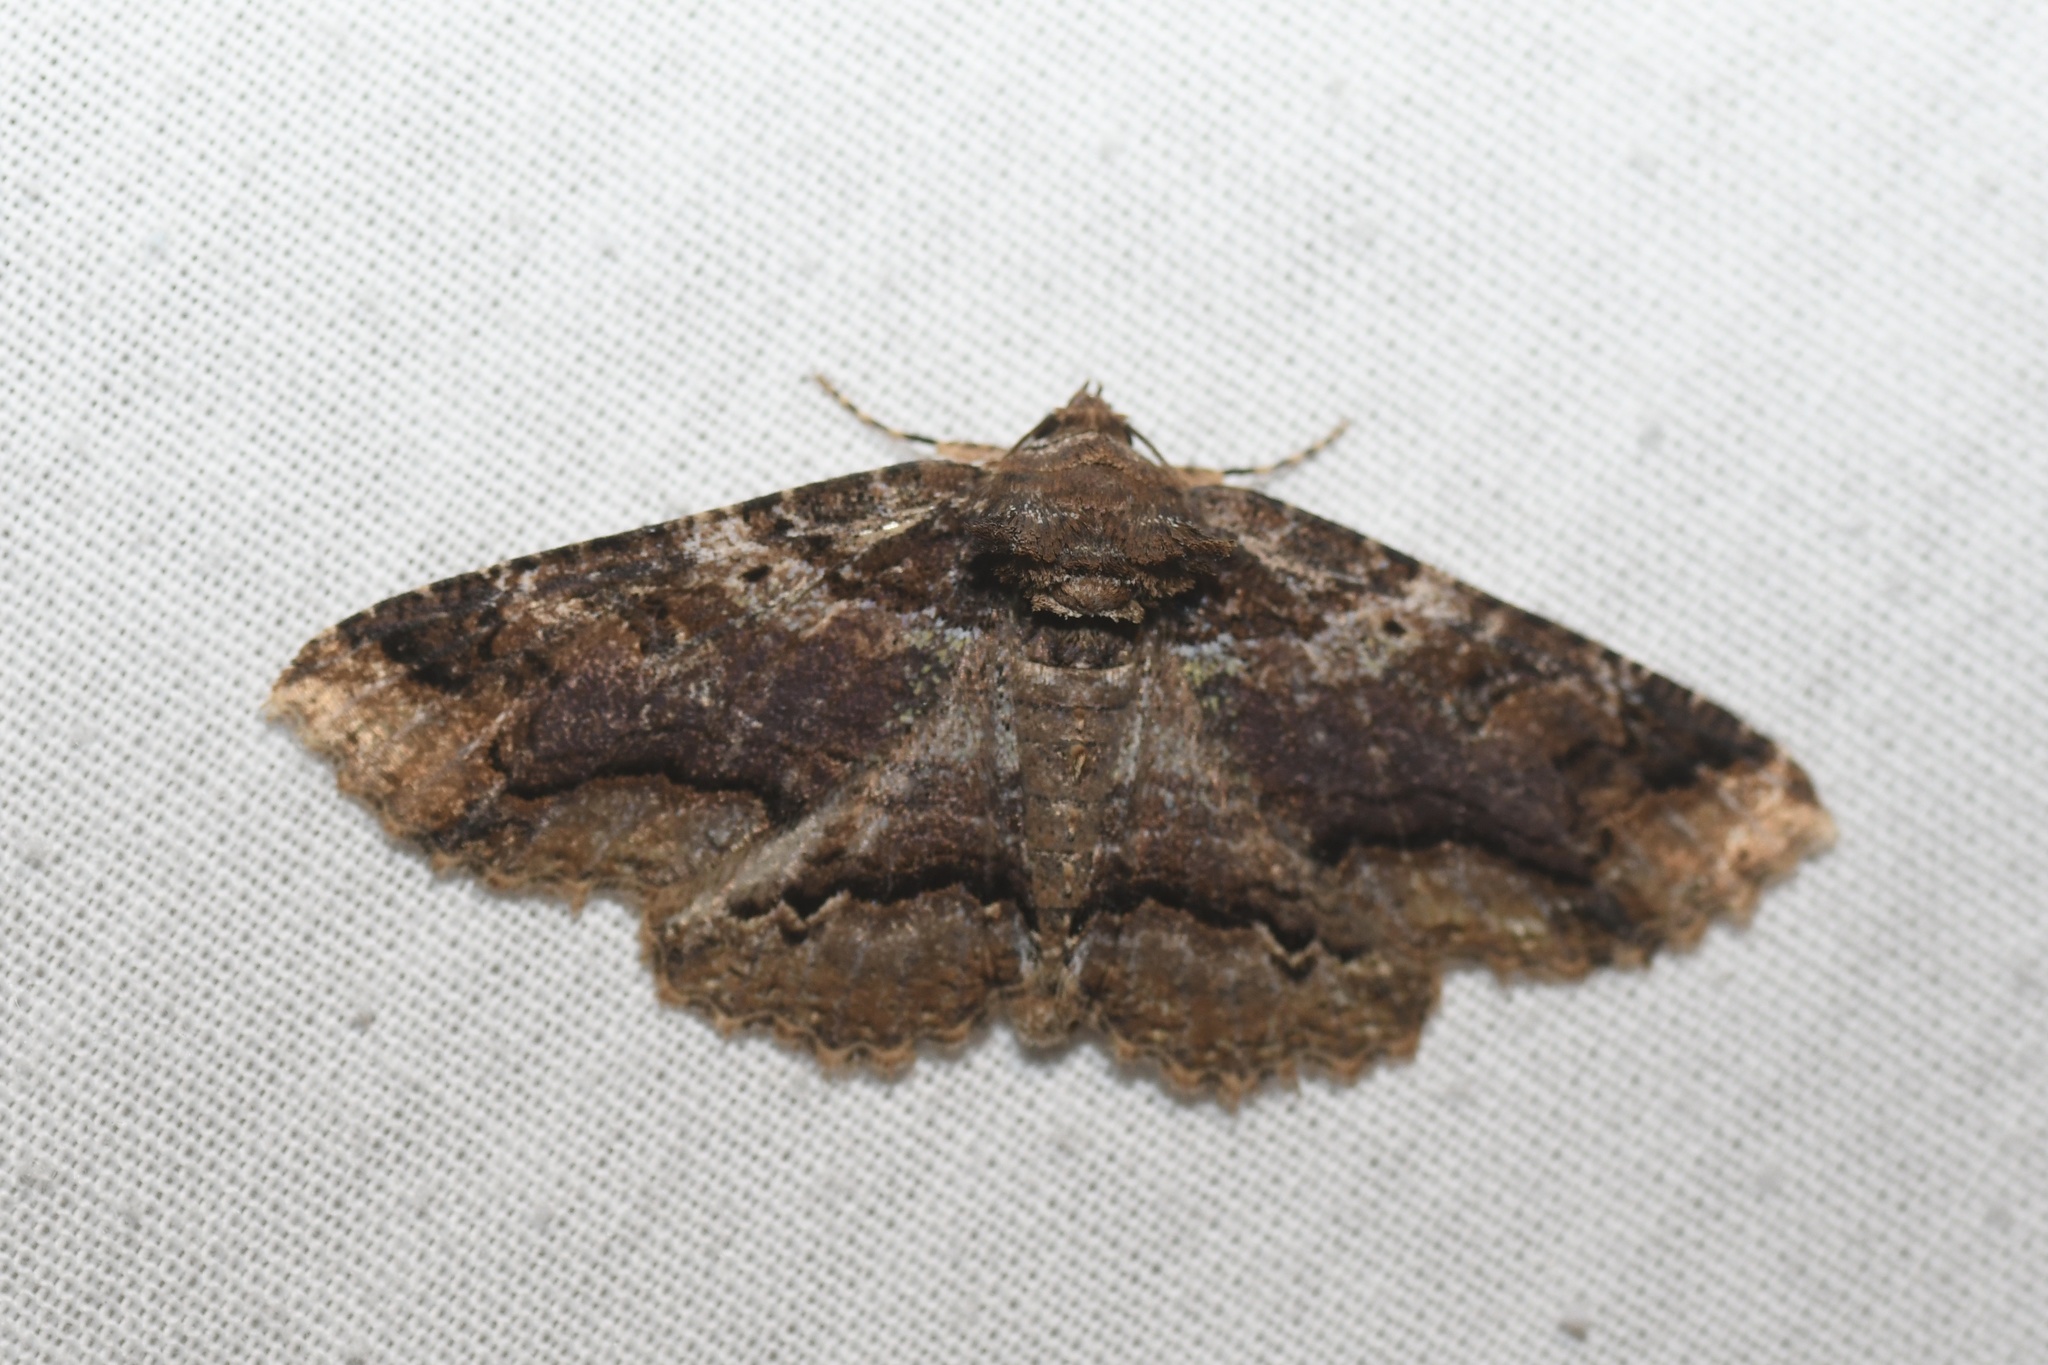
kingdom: Animalia
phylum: Arthropoda
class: Insecta
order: Lepidoptera
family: Erebidae
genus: Zale
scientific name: Zale minerea
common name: Colorful zale moth
